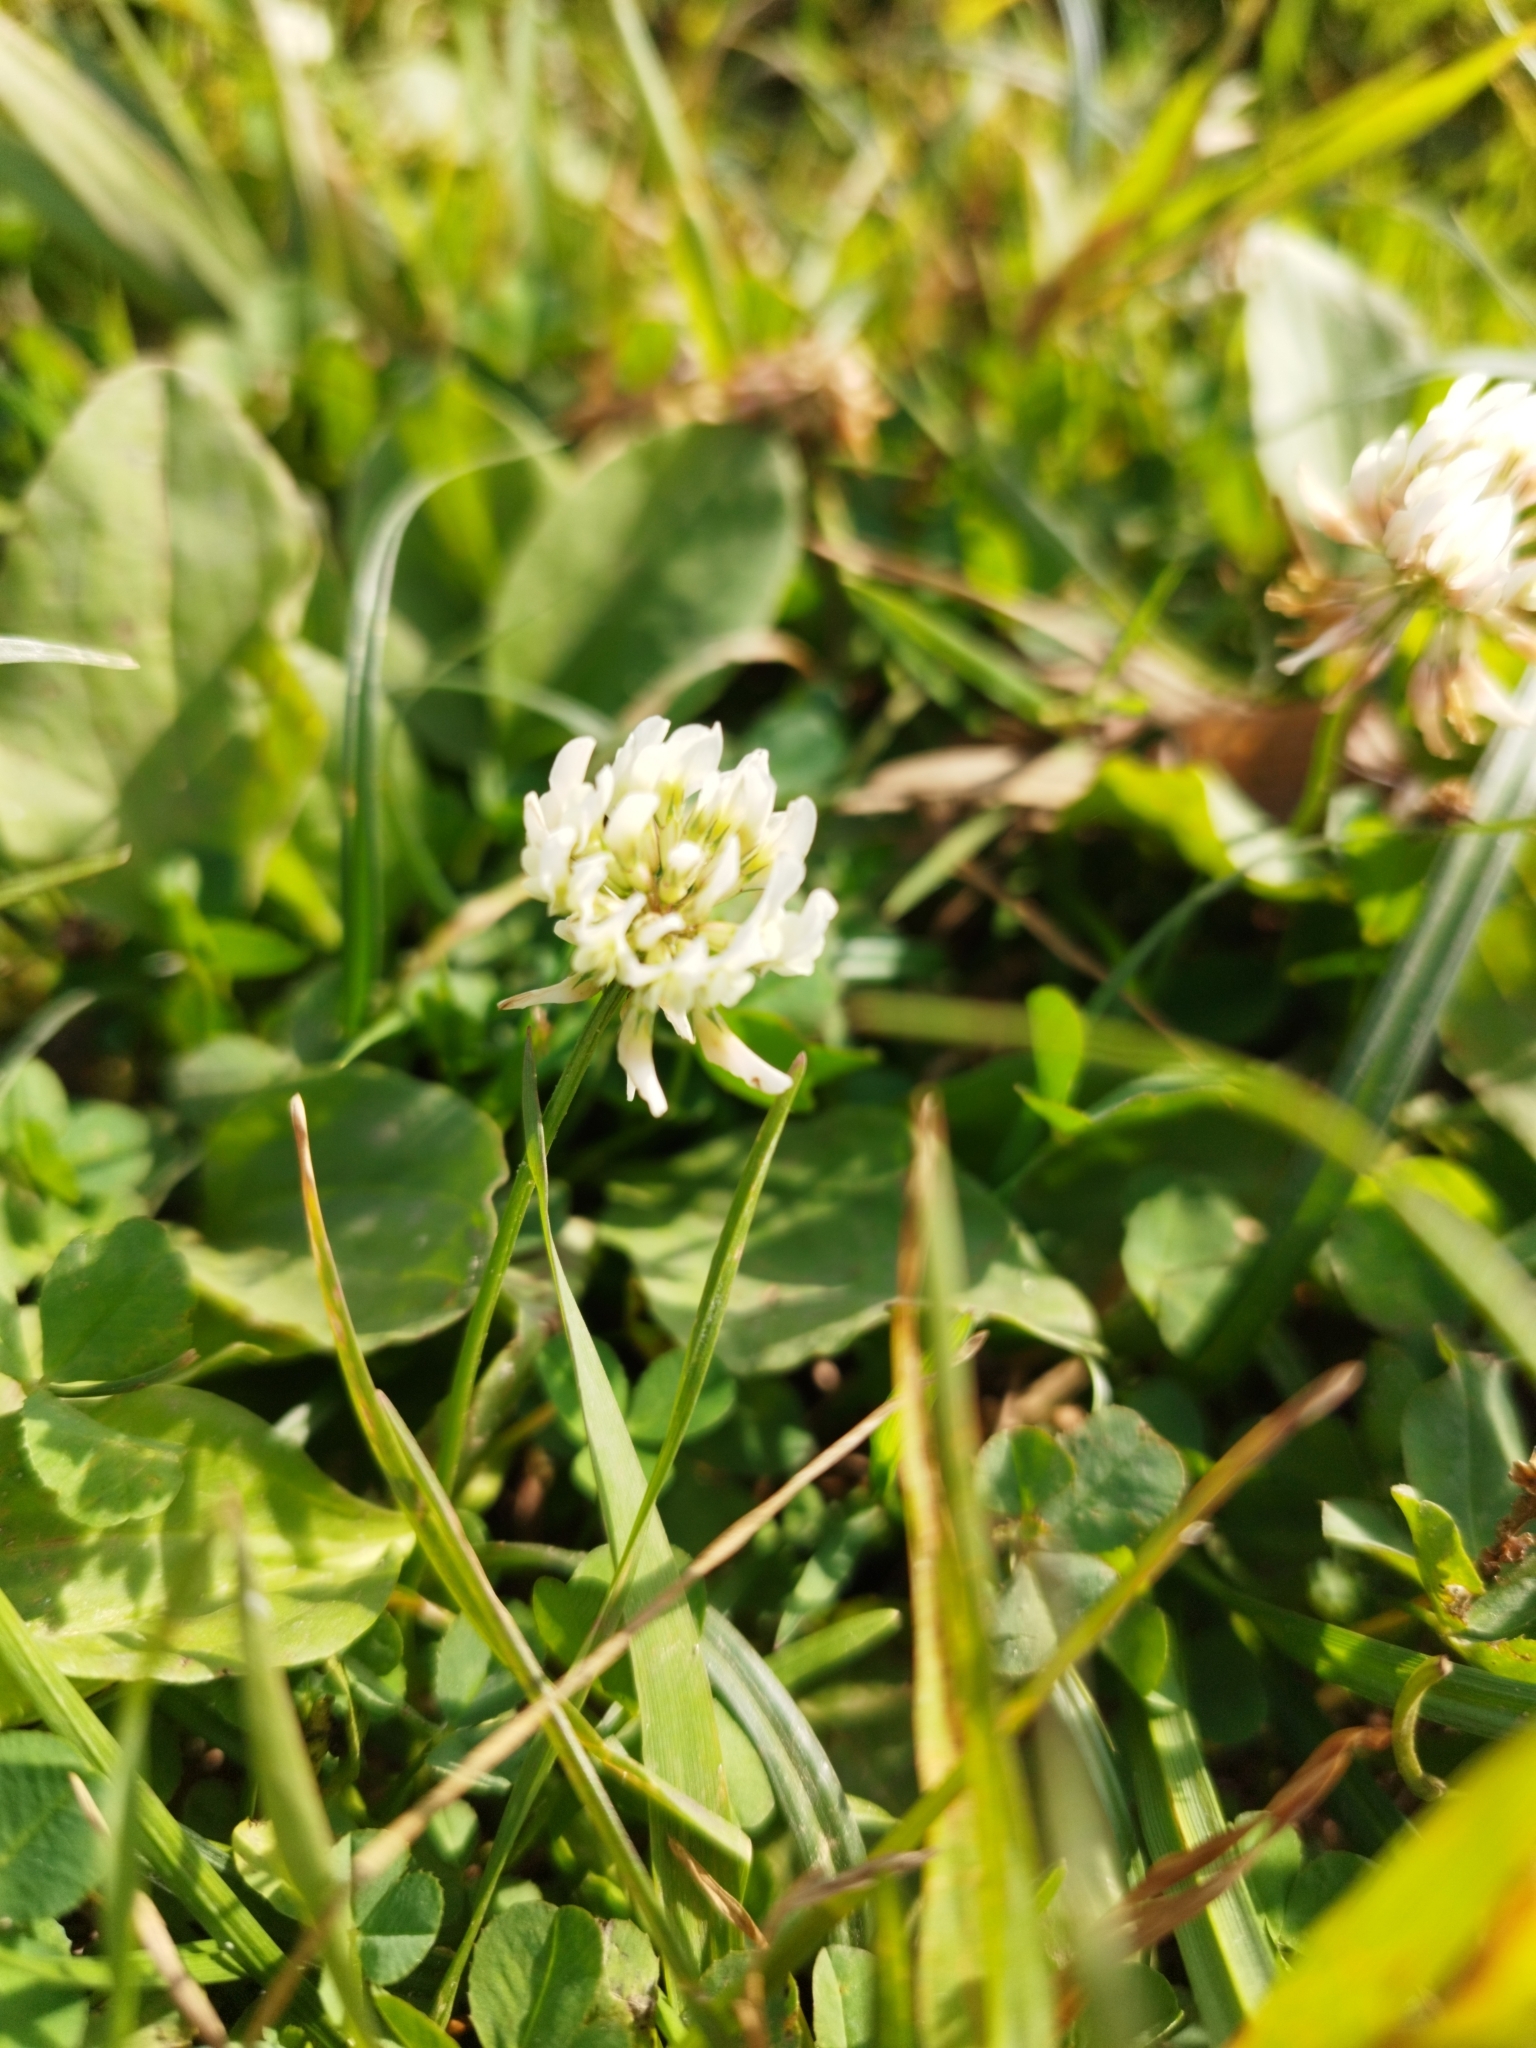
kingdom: Plantae
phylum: Tracheophyta
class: Magnoliopsida
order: Fabales
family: Fabaceae
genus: Trifolium
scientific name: Trifolium repens
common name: White clover
